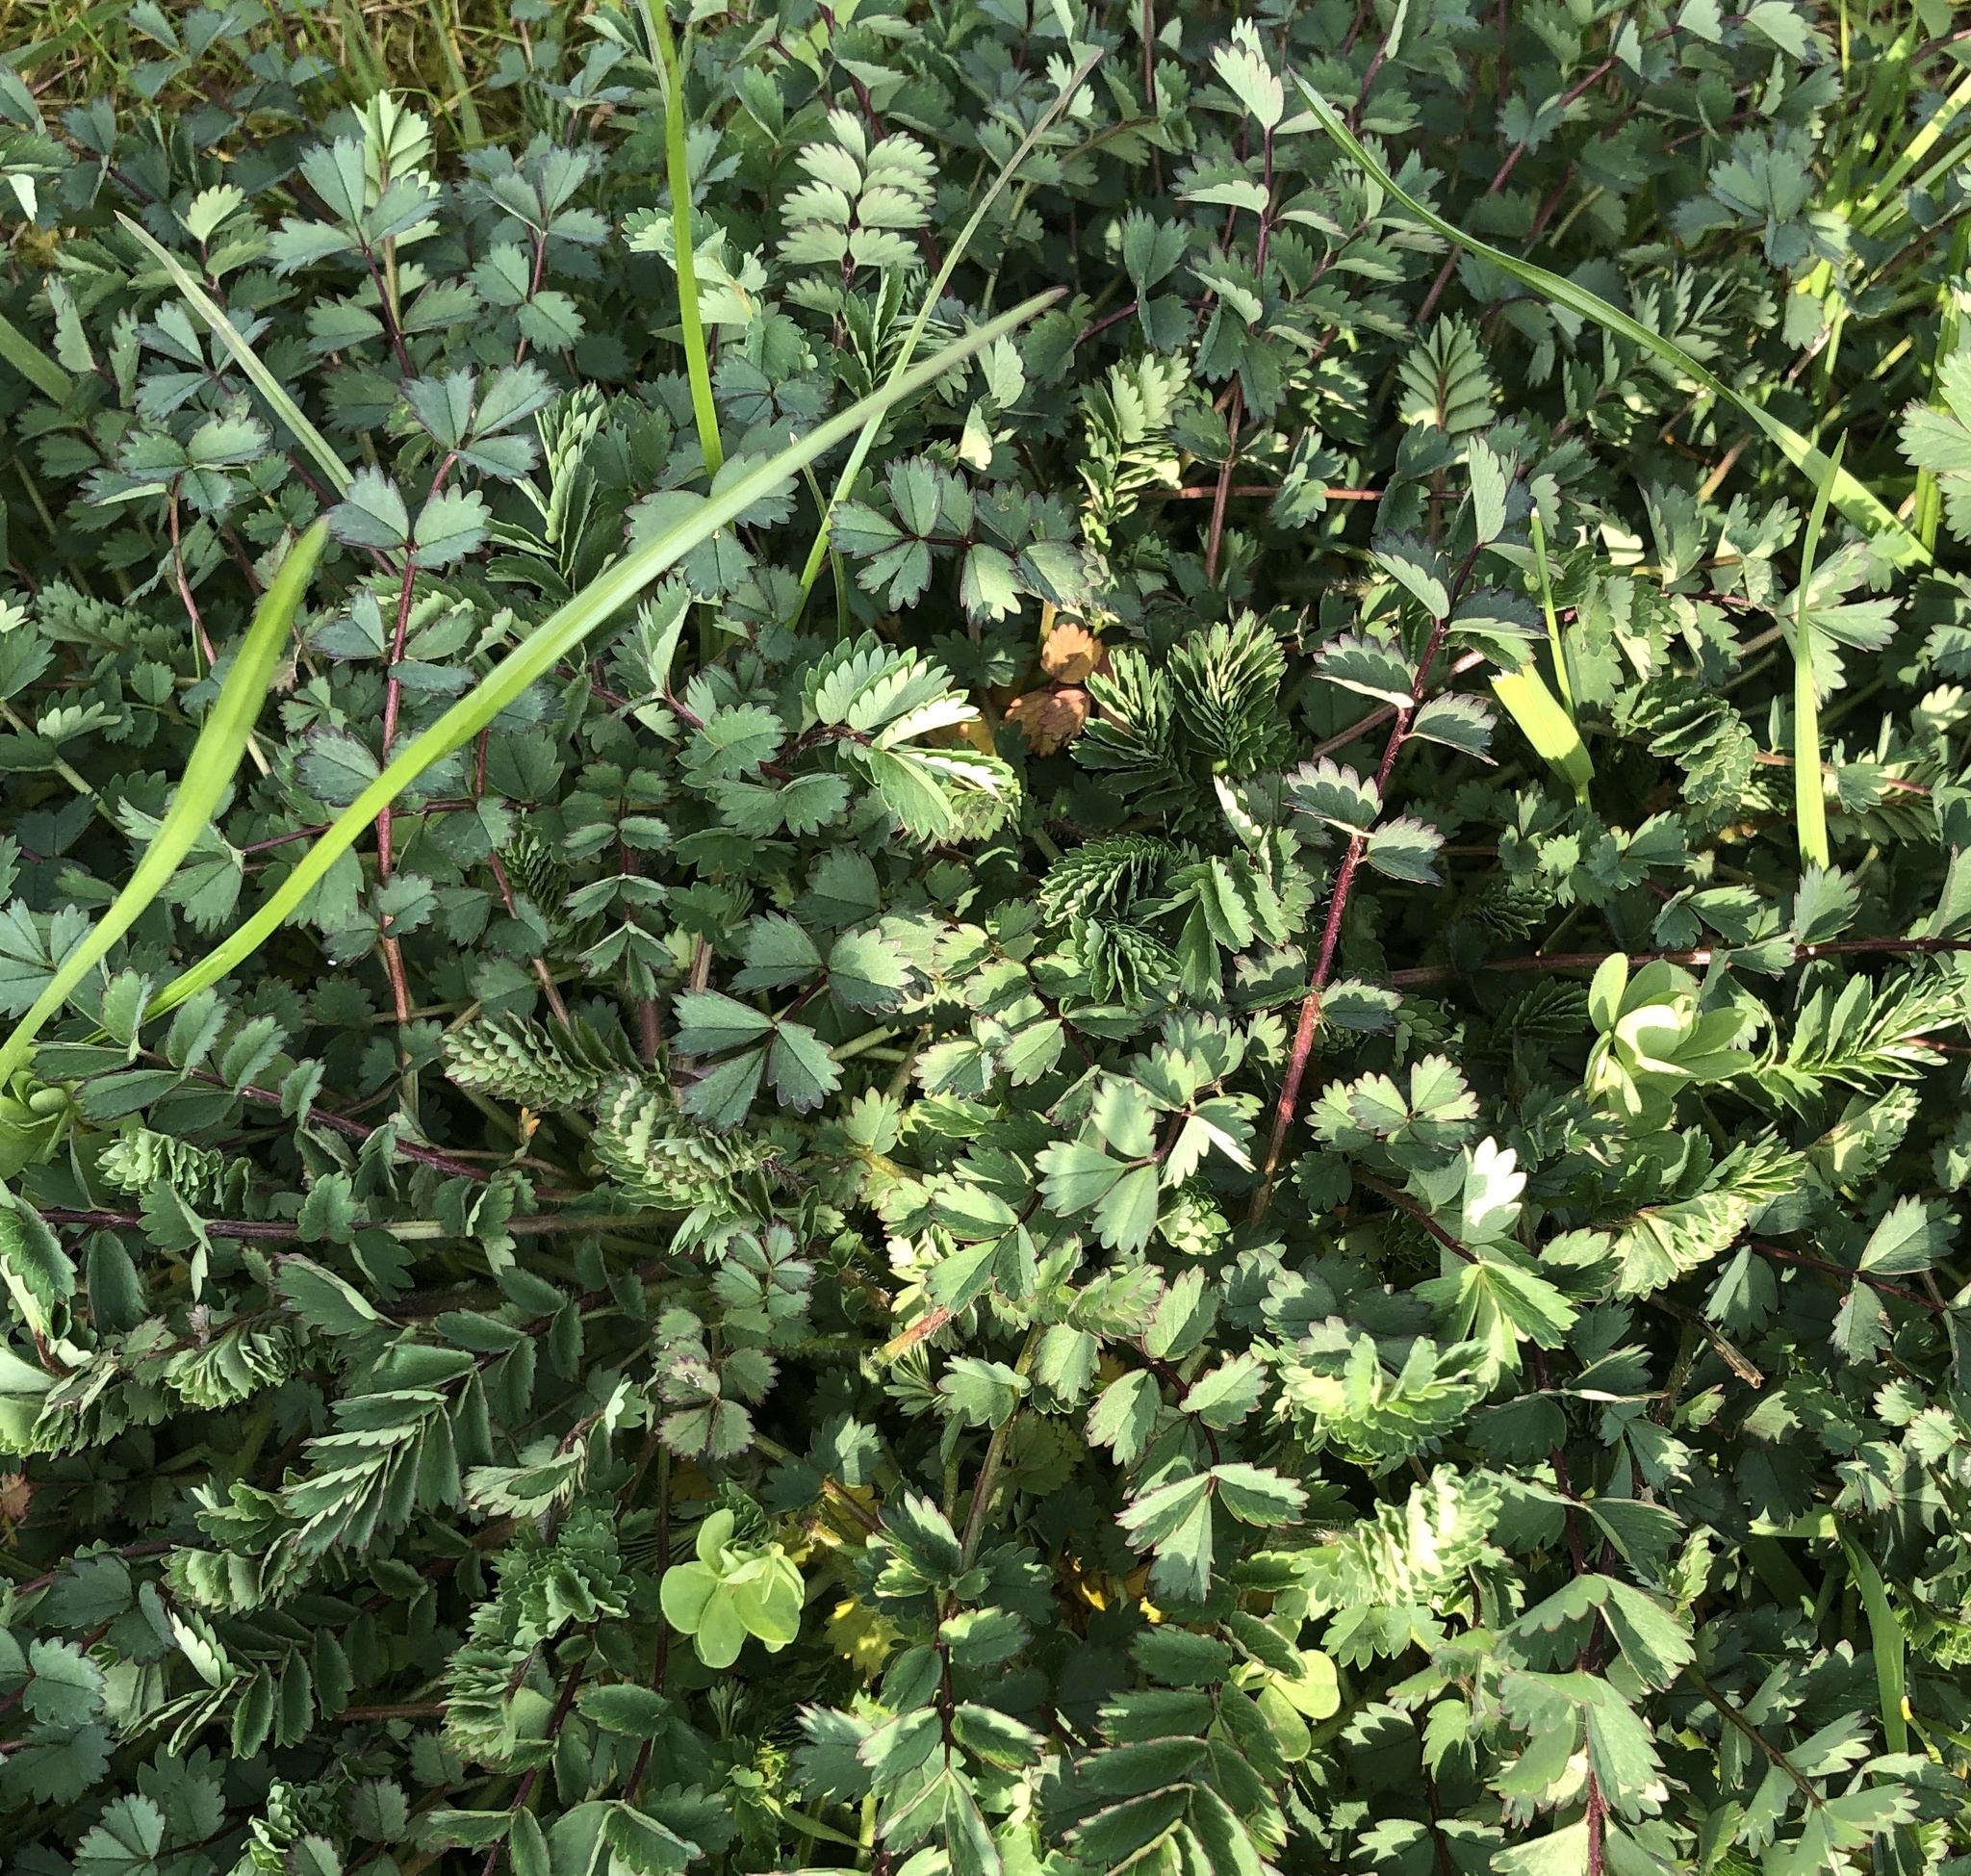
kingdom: Plantae
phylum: Tracheophyta
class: Magnoliopsida
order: Rosales
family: Rosaceae
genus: Poterium
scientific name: Poterium sanguisorba
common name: Salad burnet
